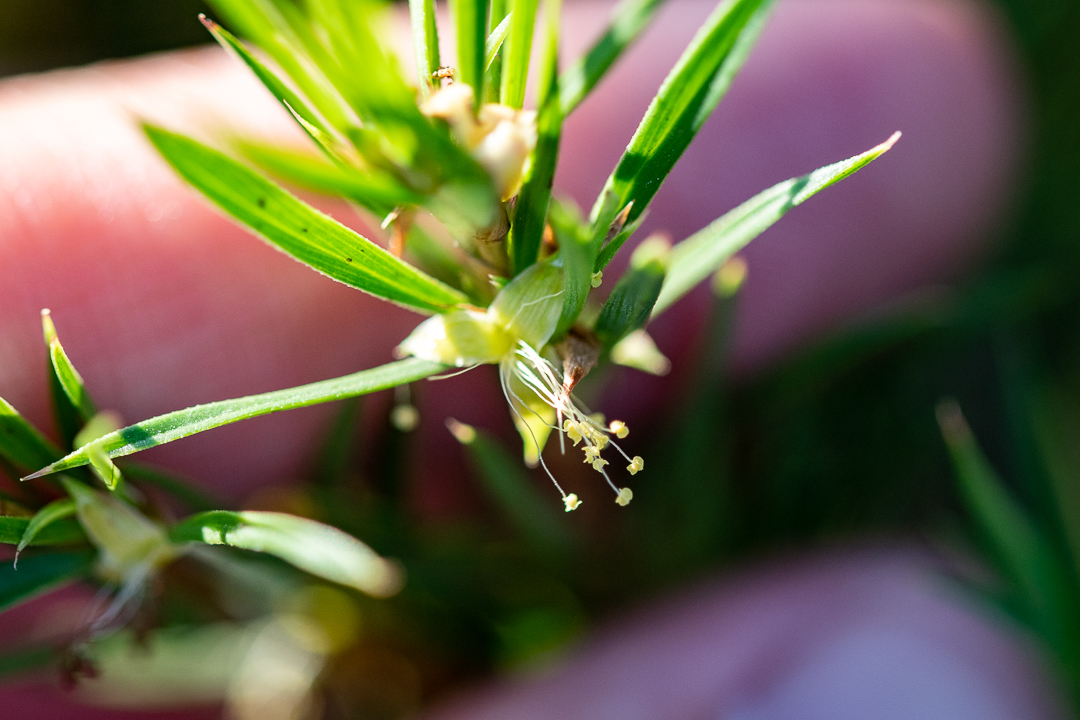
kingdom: Plantae
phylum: Tracheophyta
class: Magnoliopsida
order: Rosales
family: Rosaceae
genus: Cliffortia
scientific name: Cliffortia strobilifera
